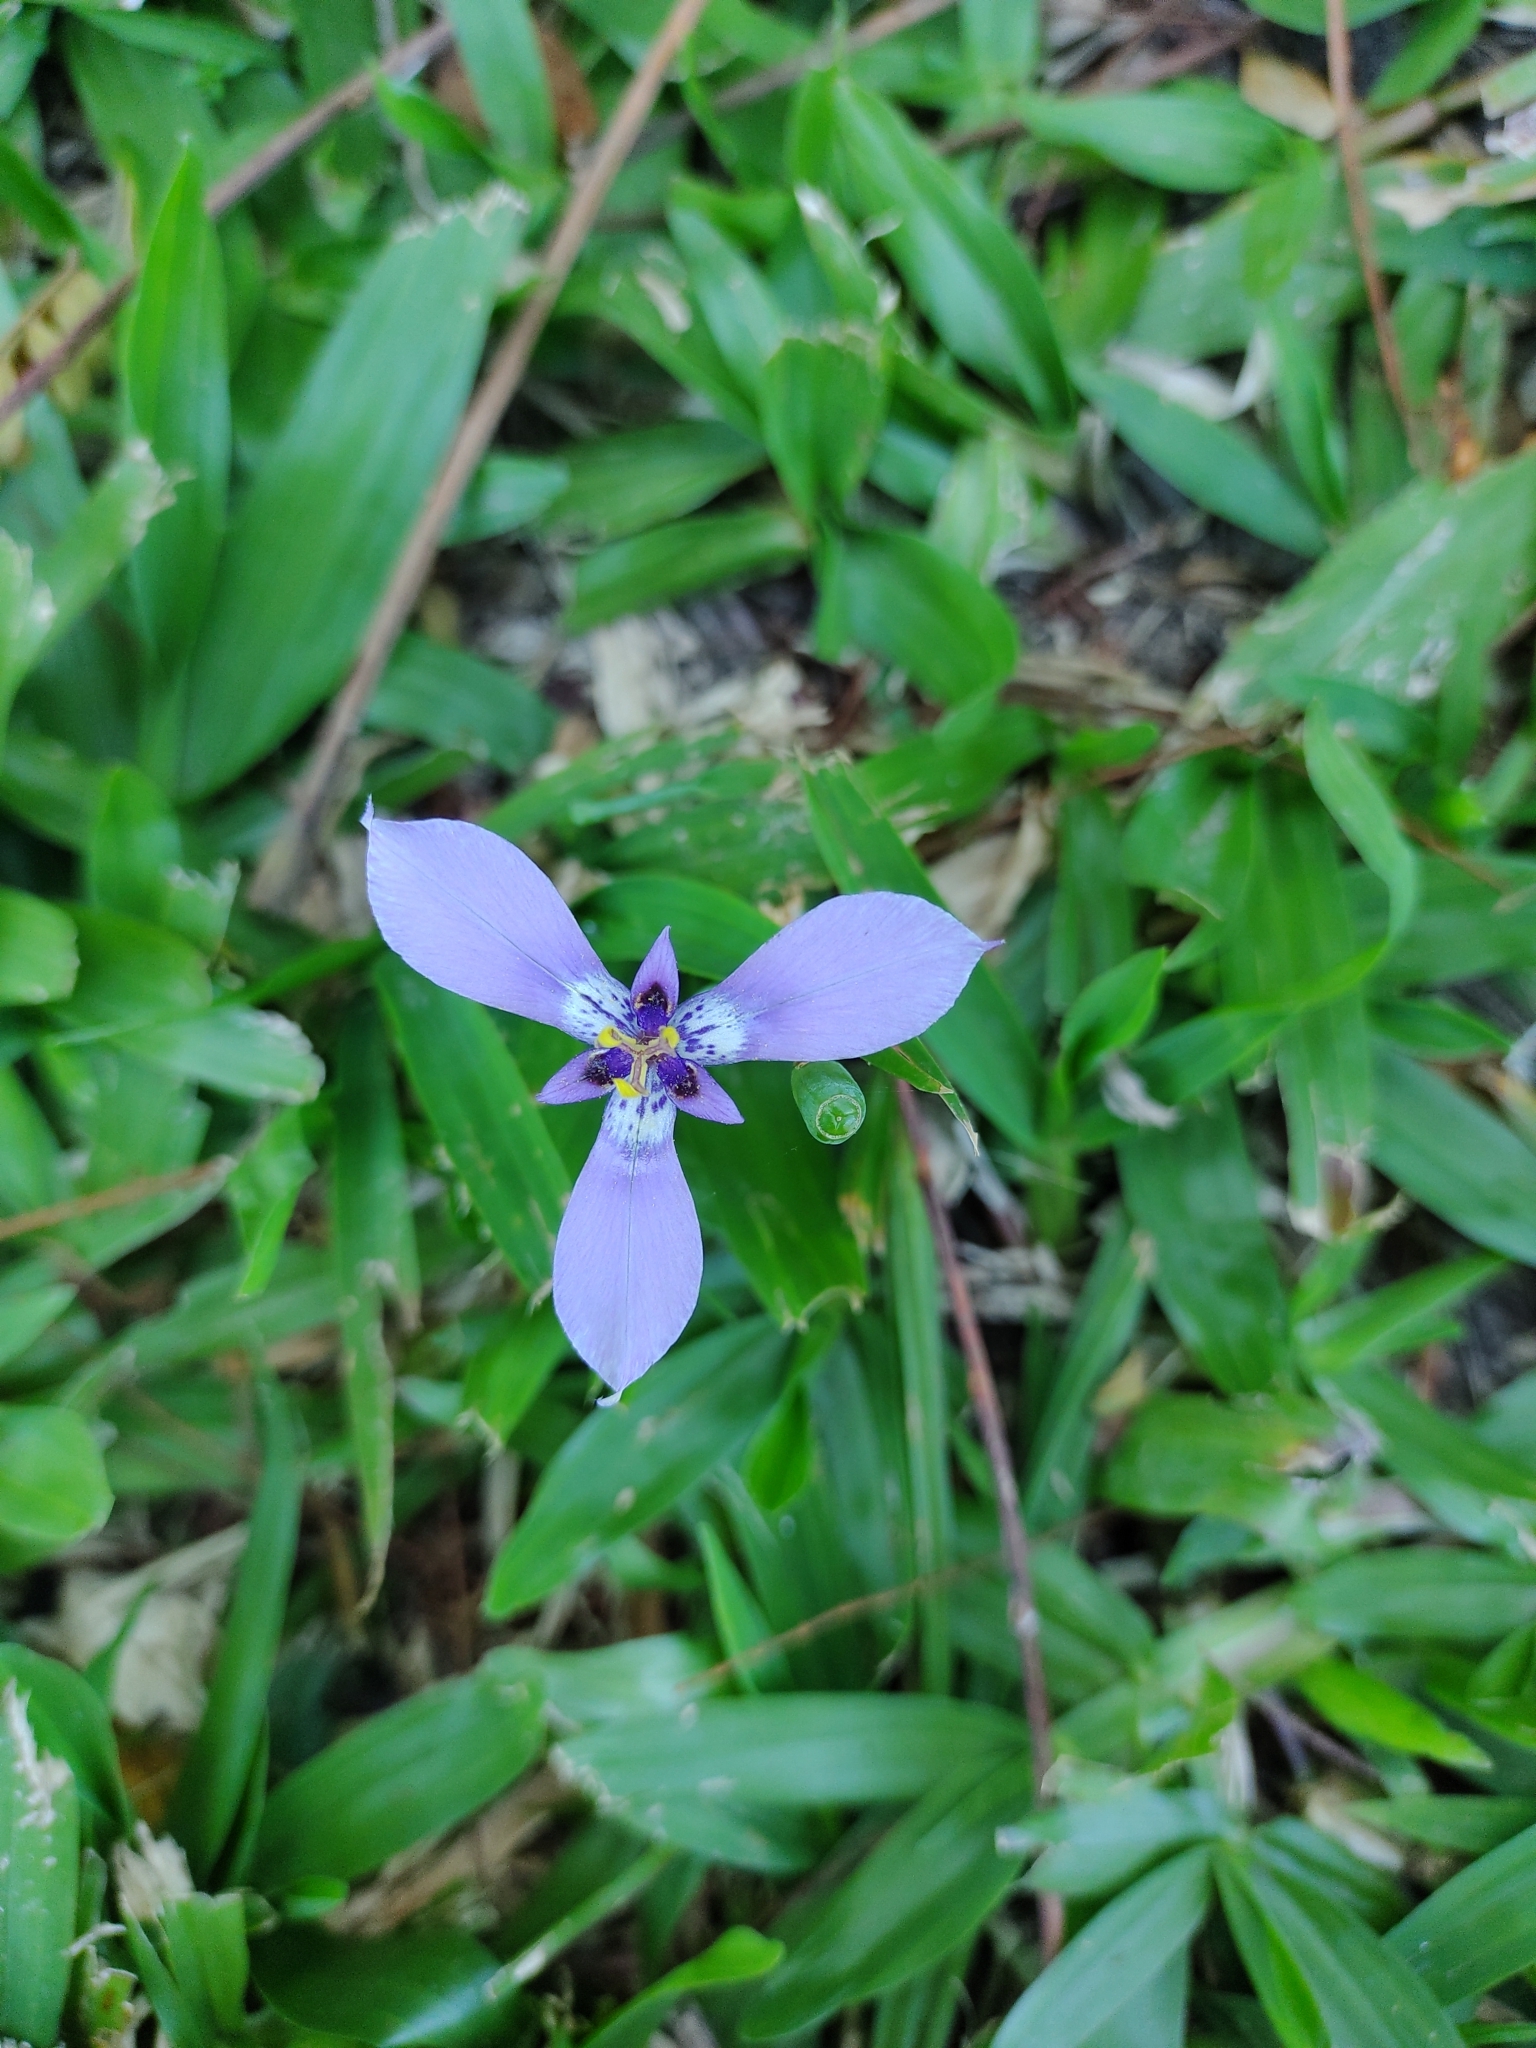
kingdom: Plantae
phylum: Tracheophyta
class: Liliopsida
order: Asparagales
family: Iridaceae
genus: Herbertia
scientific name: Herbertia lahue
